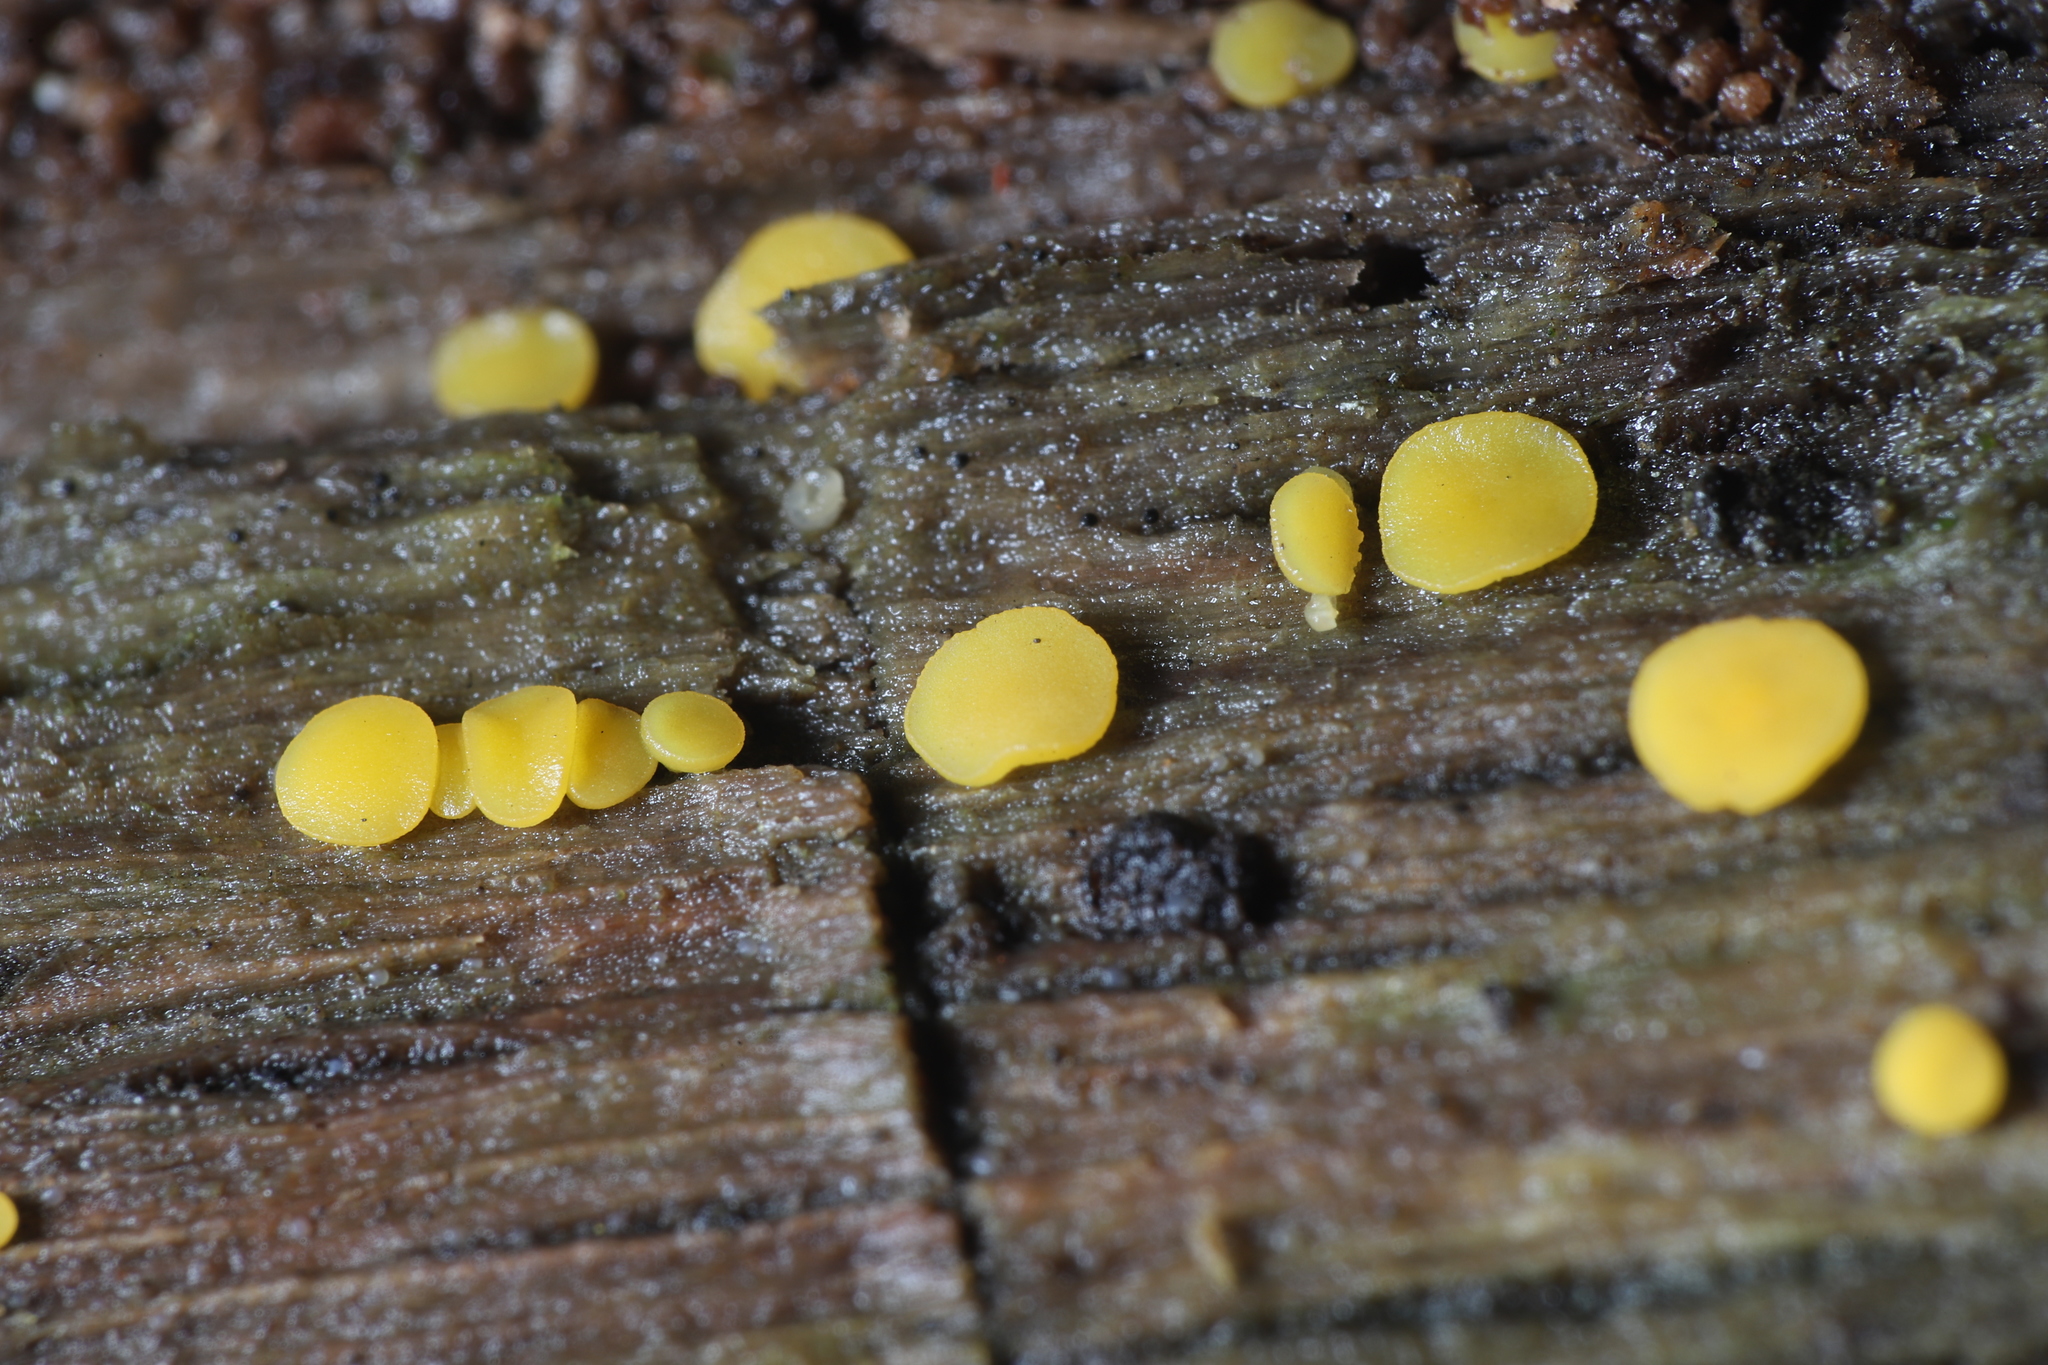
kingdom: Fungi
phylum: Ascomycota
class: Leotiomycetes
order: Helotiales
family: Pezizellaceae
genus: Calycina
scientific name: Calycina citrina
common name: Yellow fairy cups
